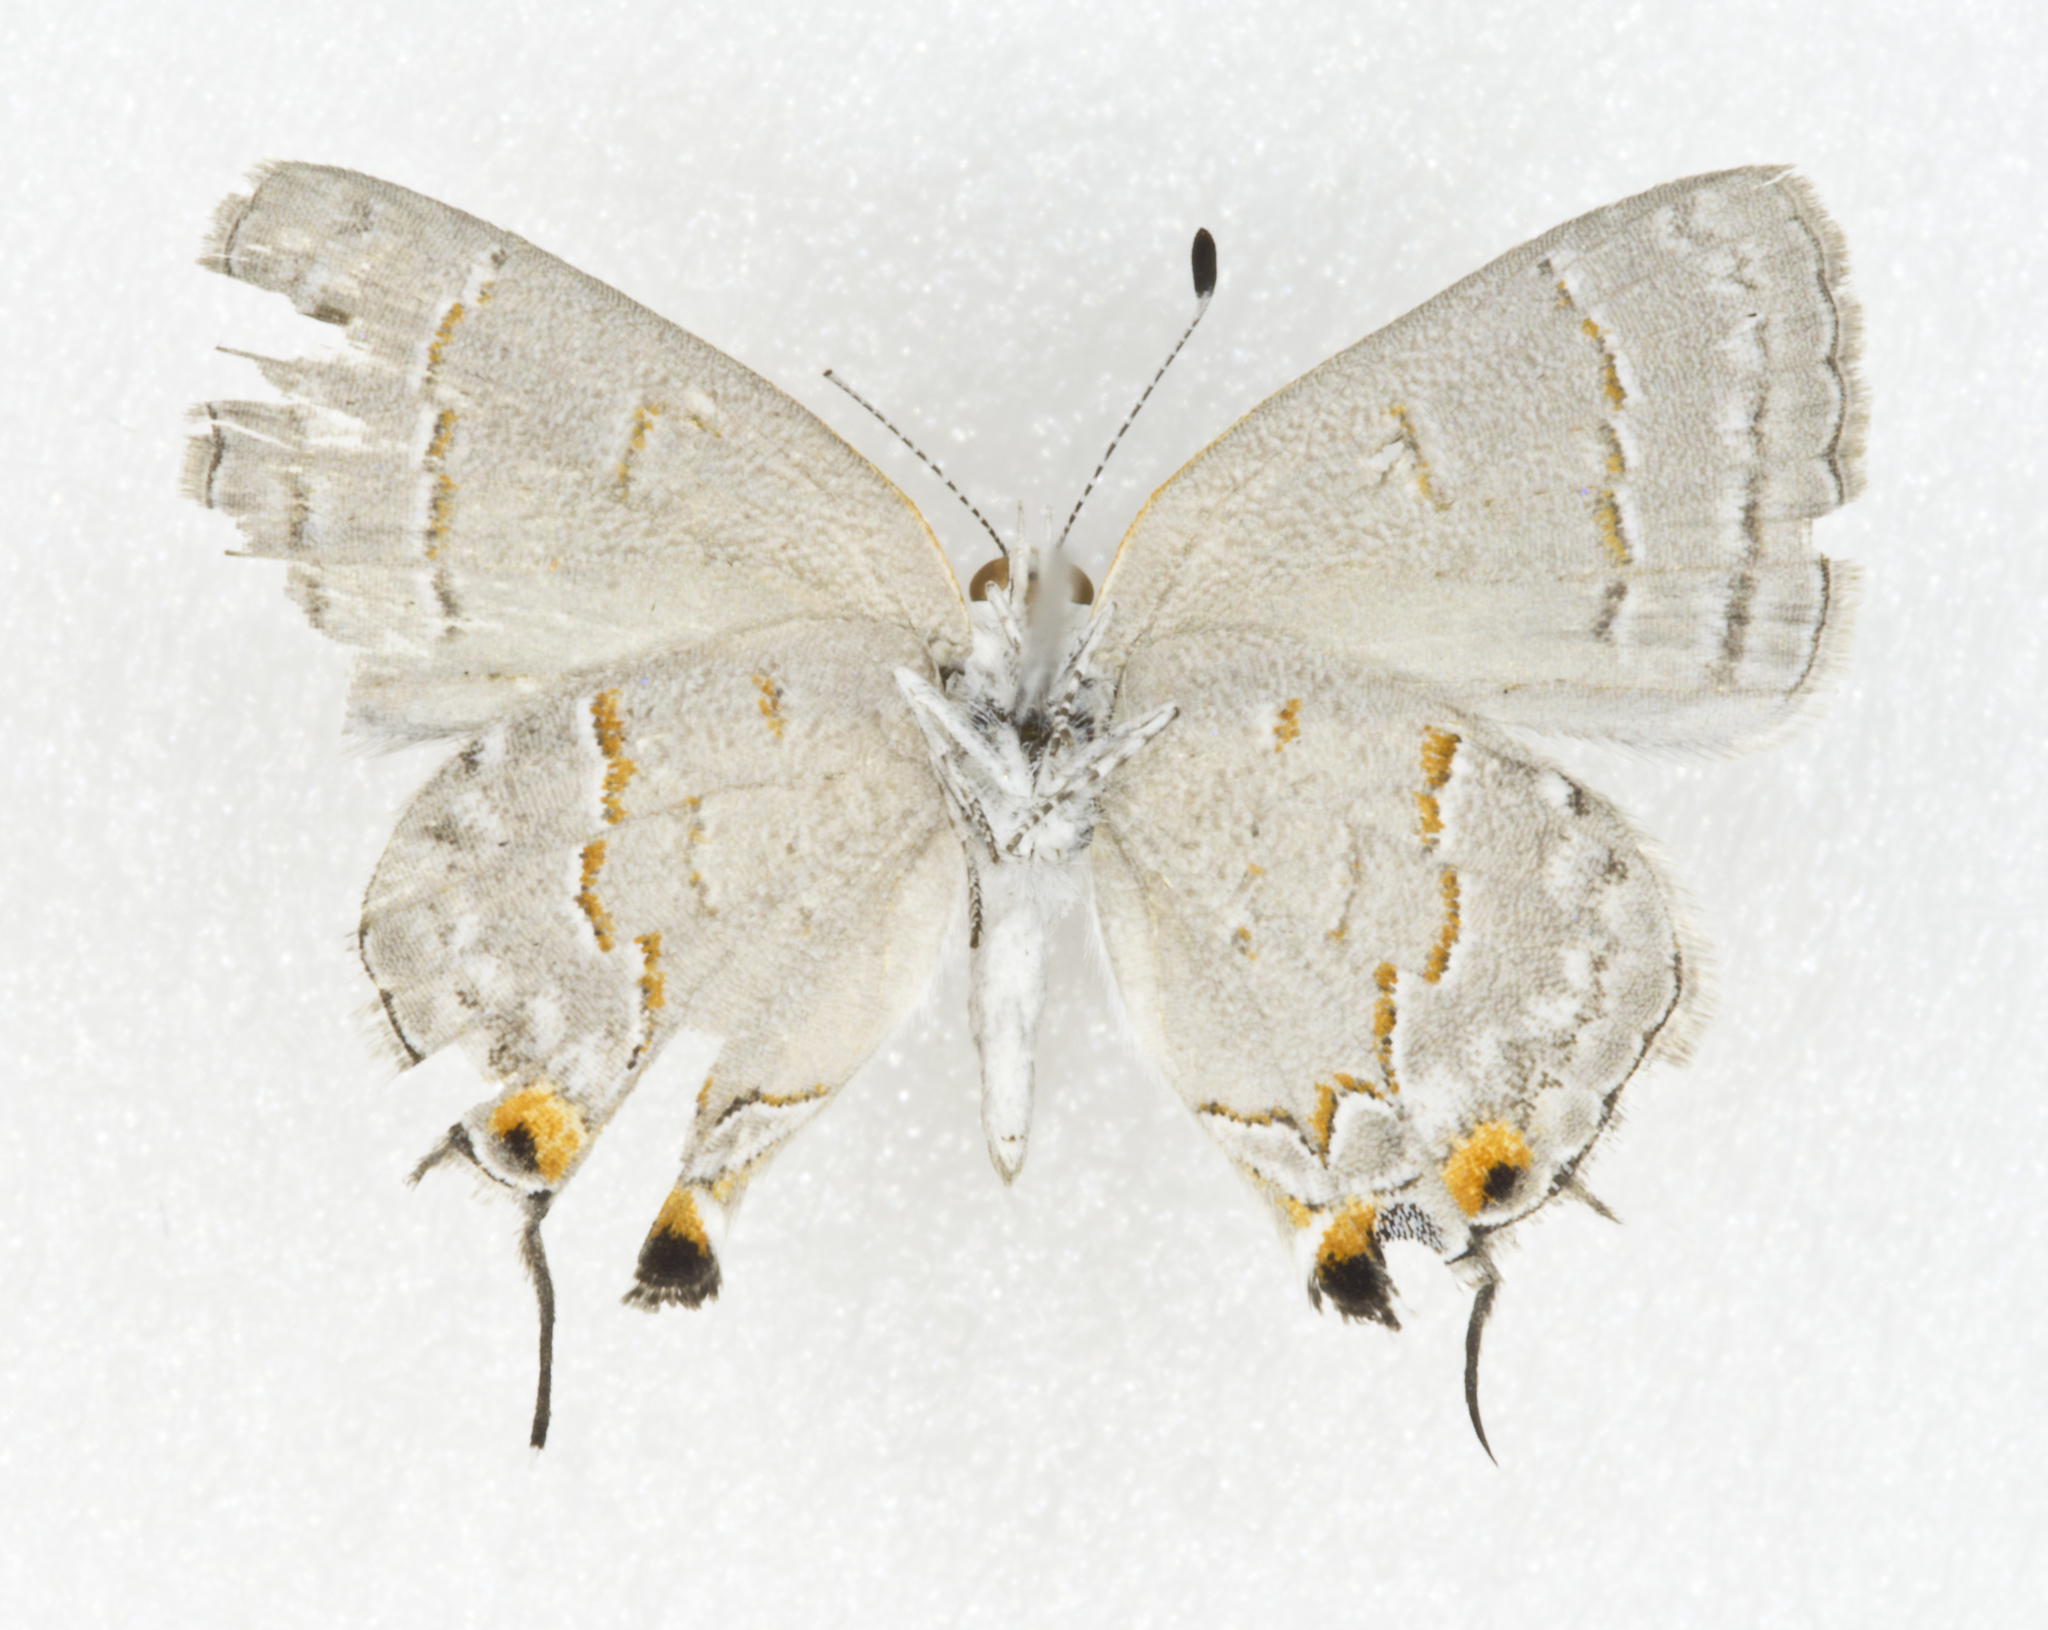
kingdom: Animalia
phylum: Arthropoda
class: Insecta
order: Lepidoptera
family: Lycaenidae
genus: Ministrymon
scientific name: Ministrymon leda
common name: Leda ministreak
